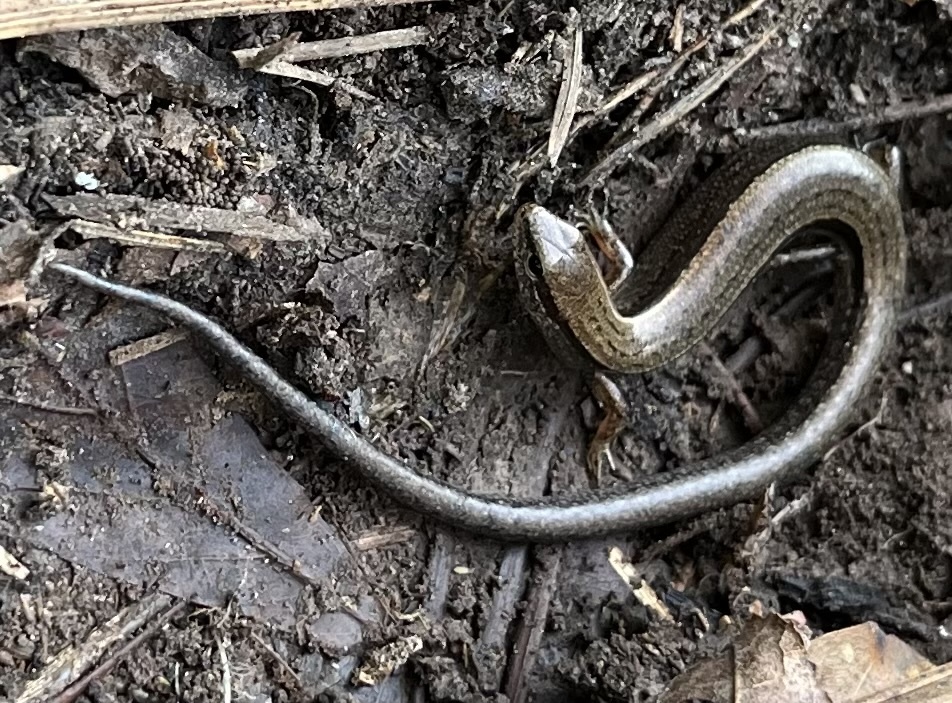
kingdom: Animalia
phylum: Chordata
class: Squamata
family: Scincidae
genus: Scincella
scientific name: Scincella lateralis
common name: Ground skink
